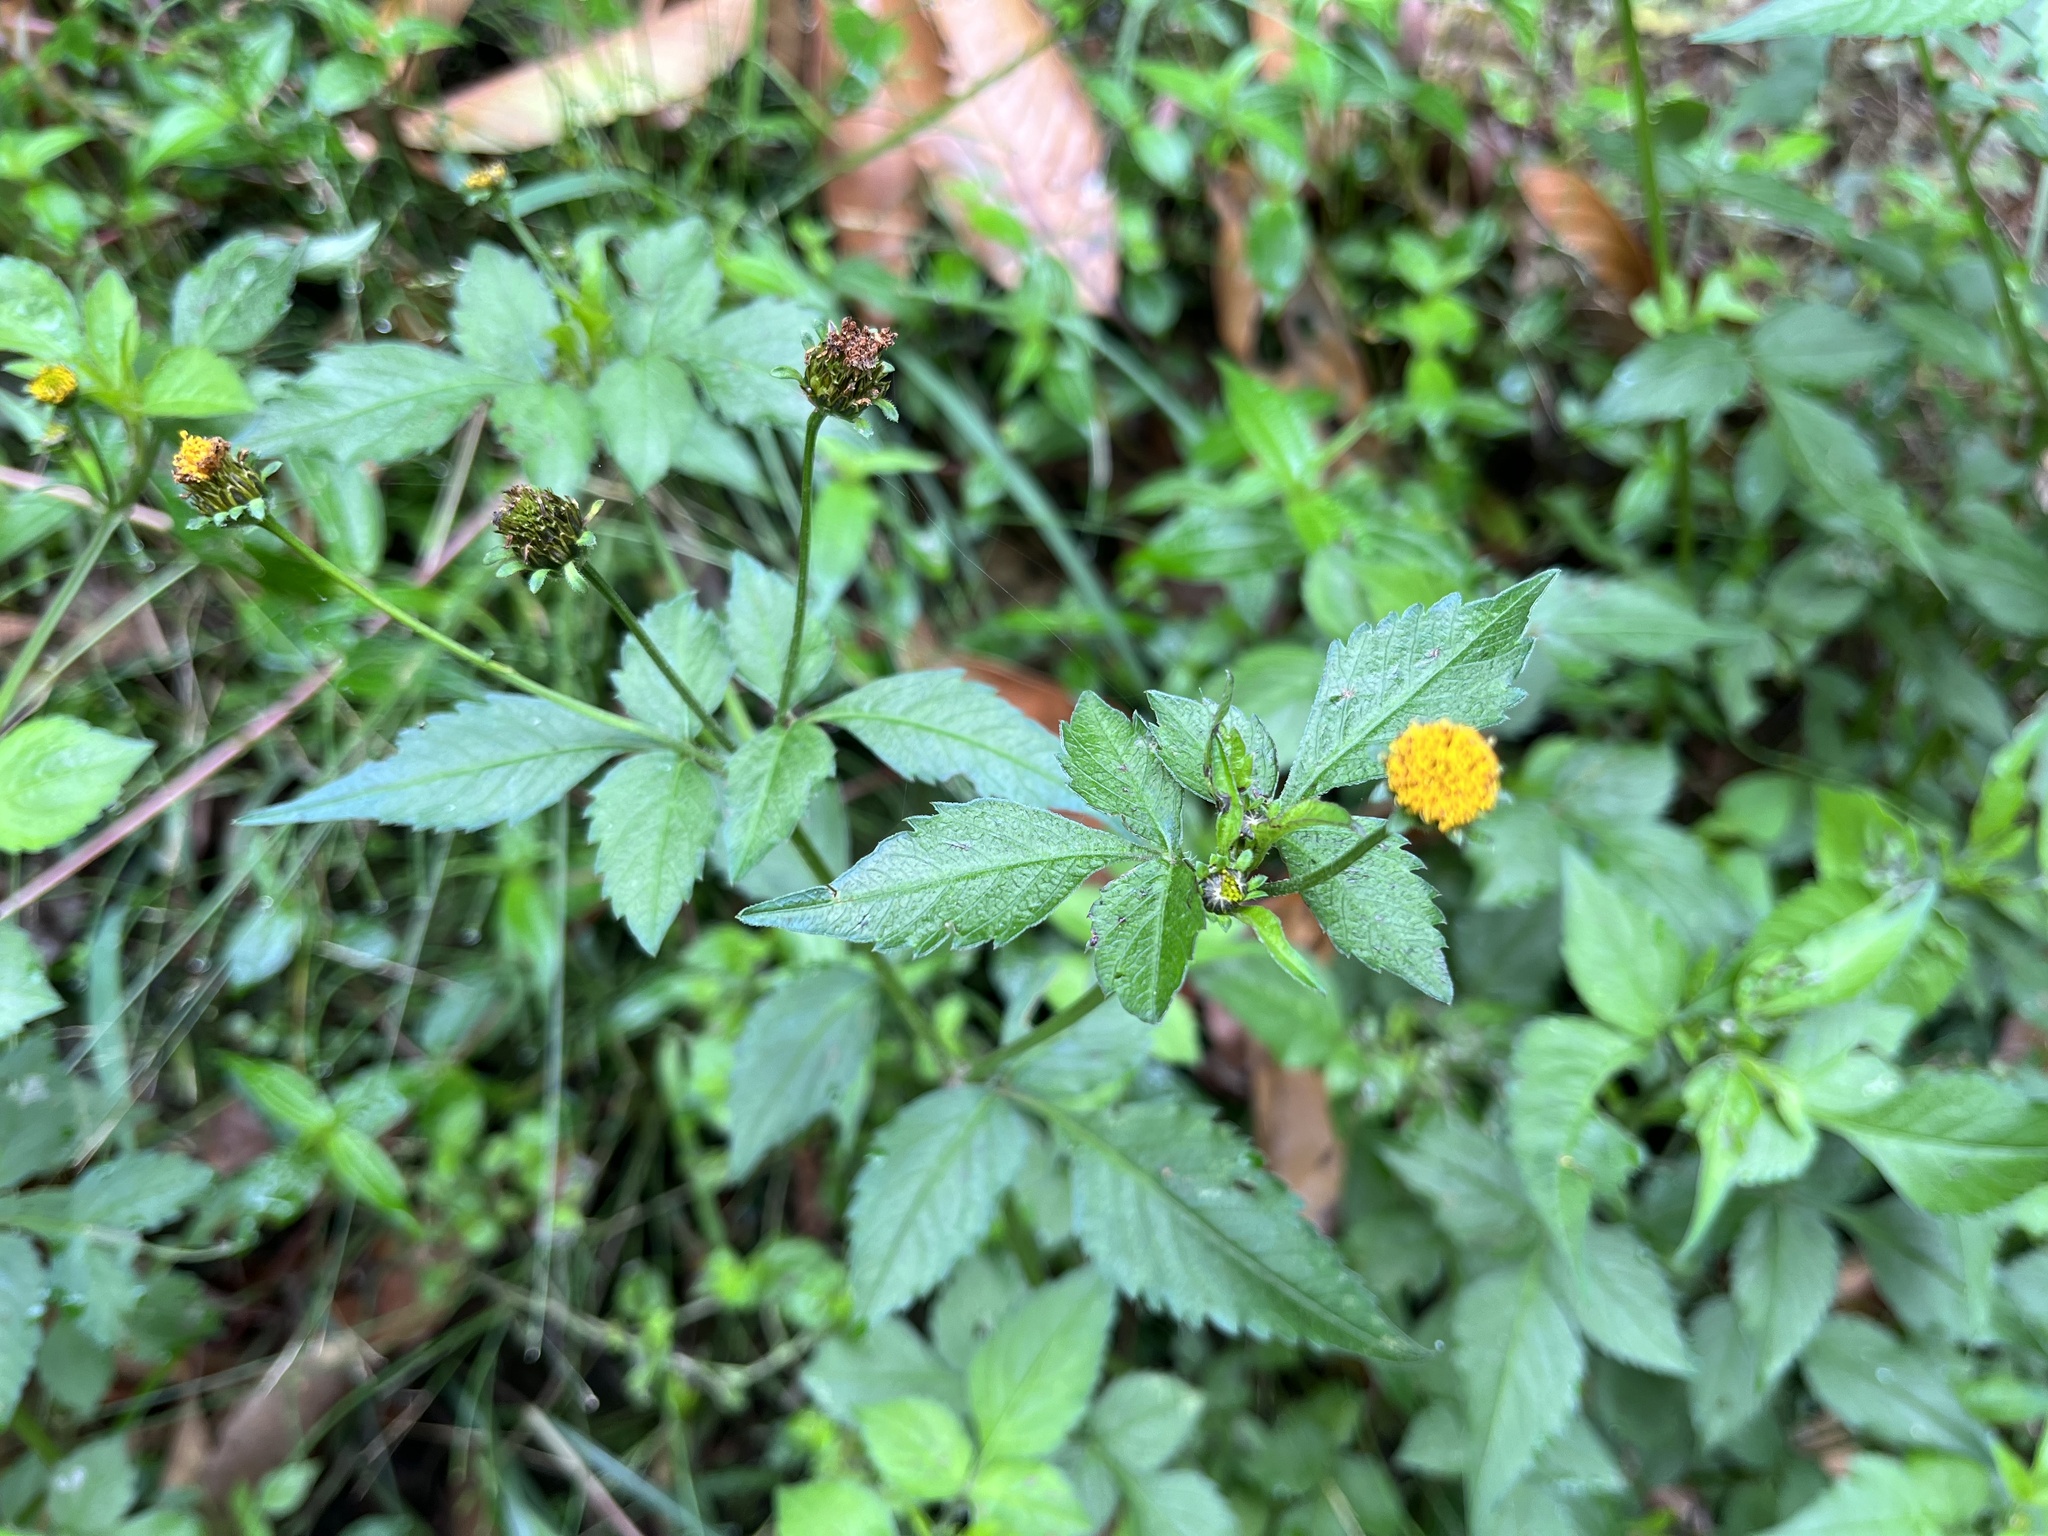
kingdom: Plantae
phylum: Tracheophyta
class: Magnoliopsida
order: Asterales
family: Asteraceae
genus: Bidens
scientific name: Bidens pilosa
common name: Black-jack
